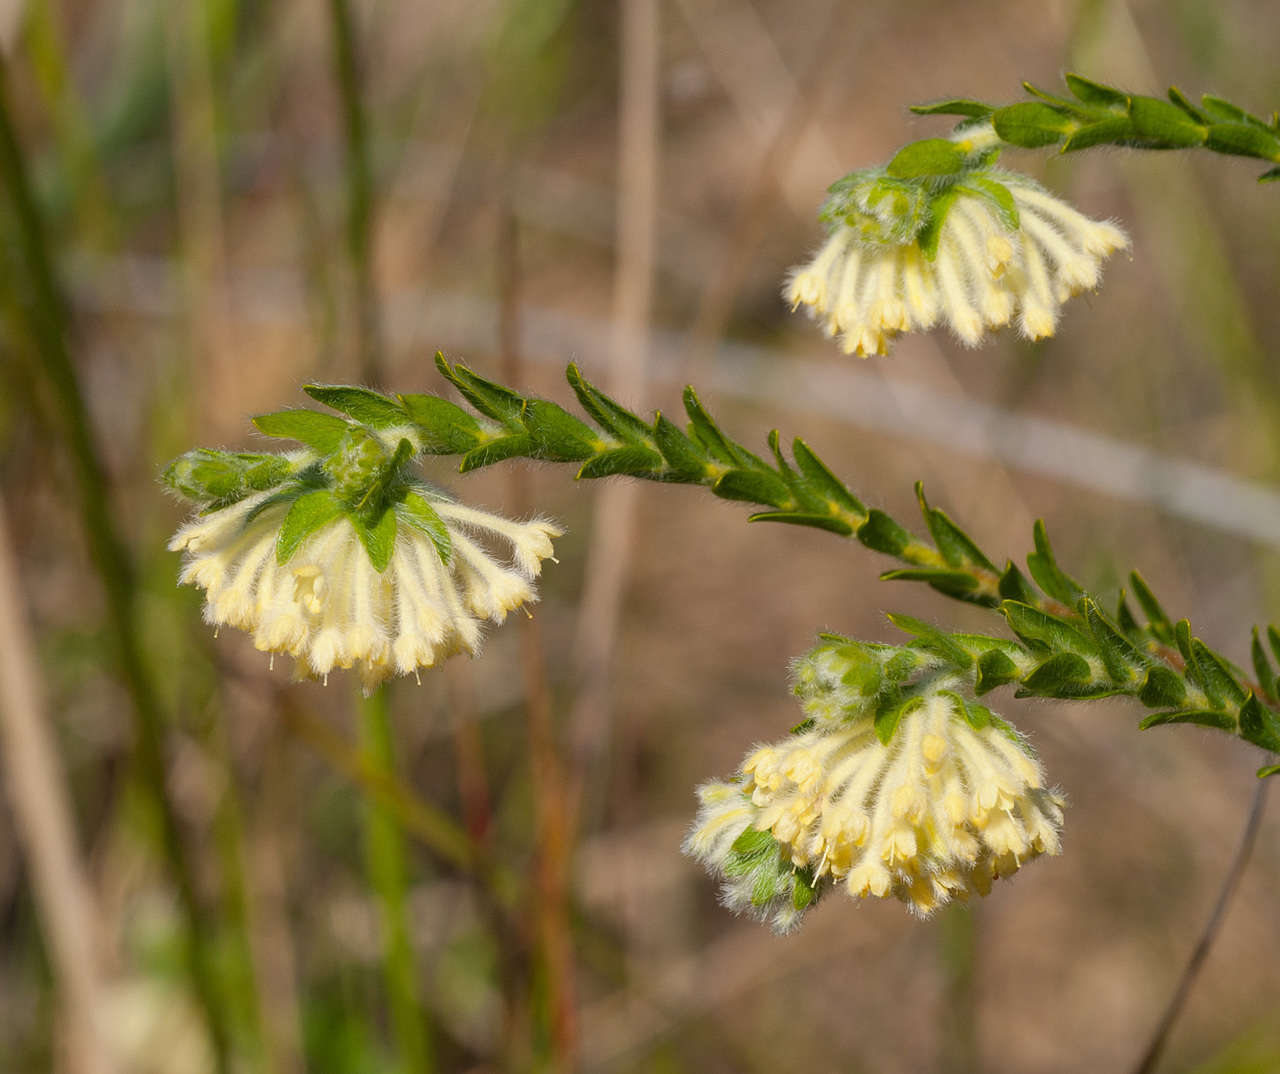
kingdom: Plantae
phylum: Tracheophyta
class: Magnoliopsida
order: Malvales
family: Thymelaeaceae
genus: Pimelea
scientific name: Pimelea octophylla
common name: Woolly riceflower
